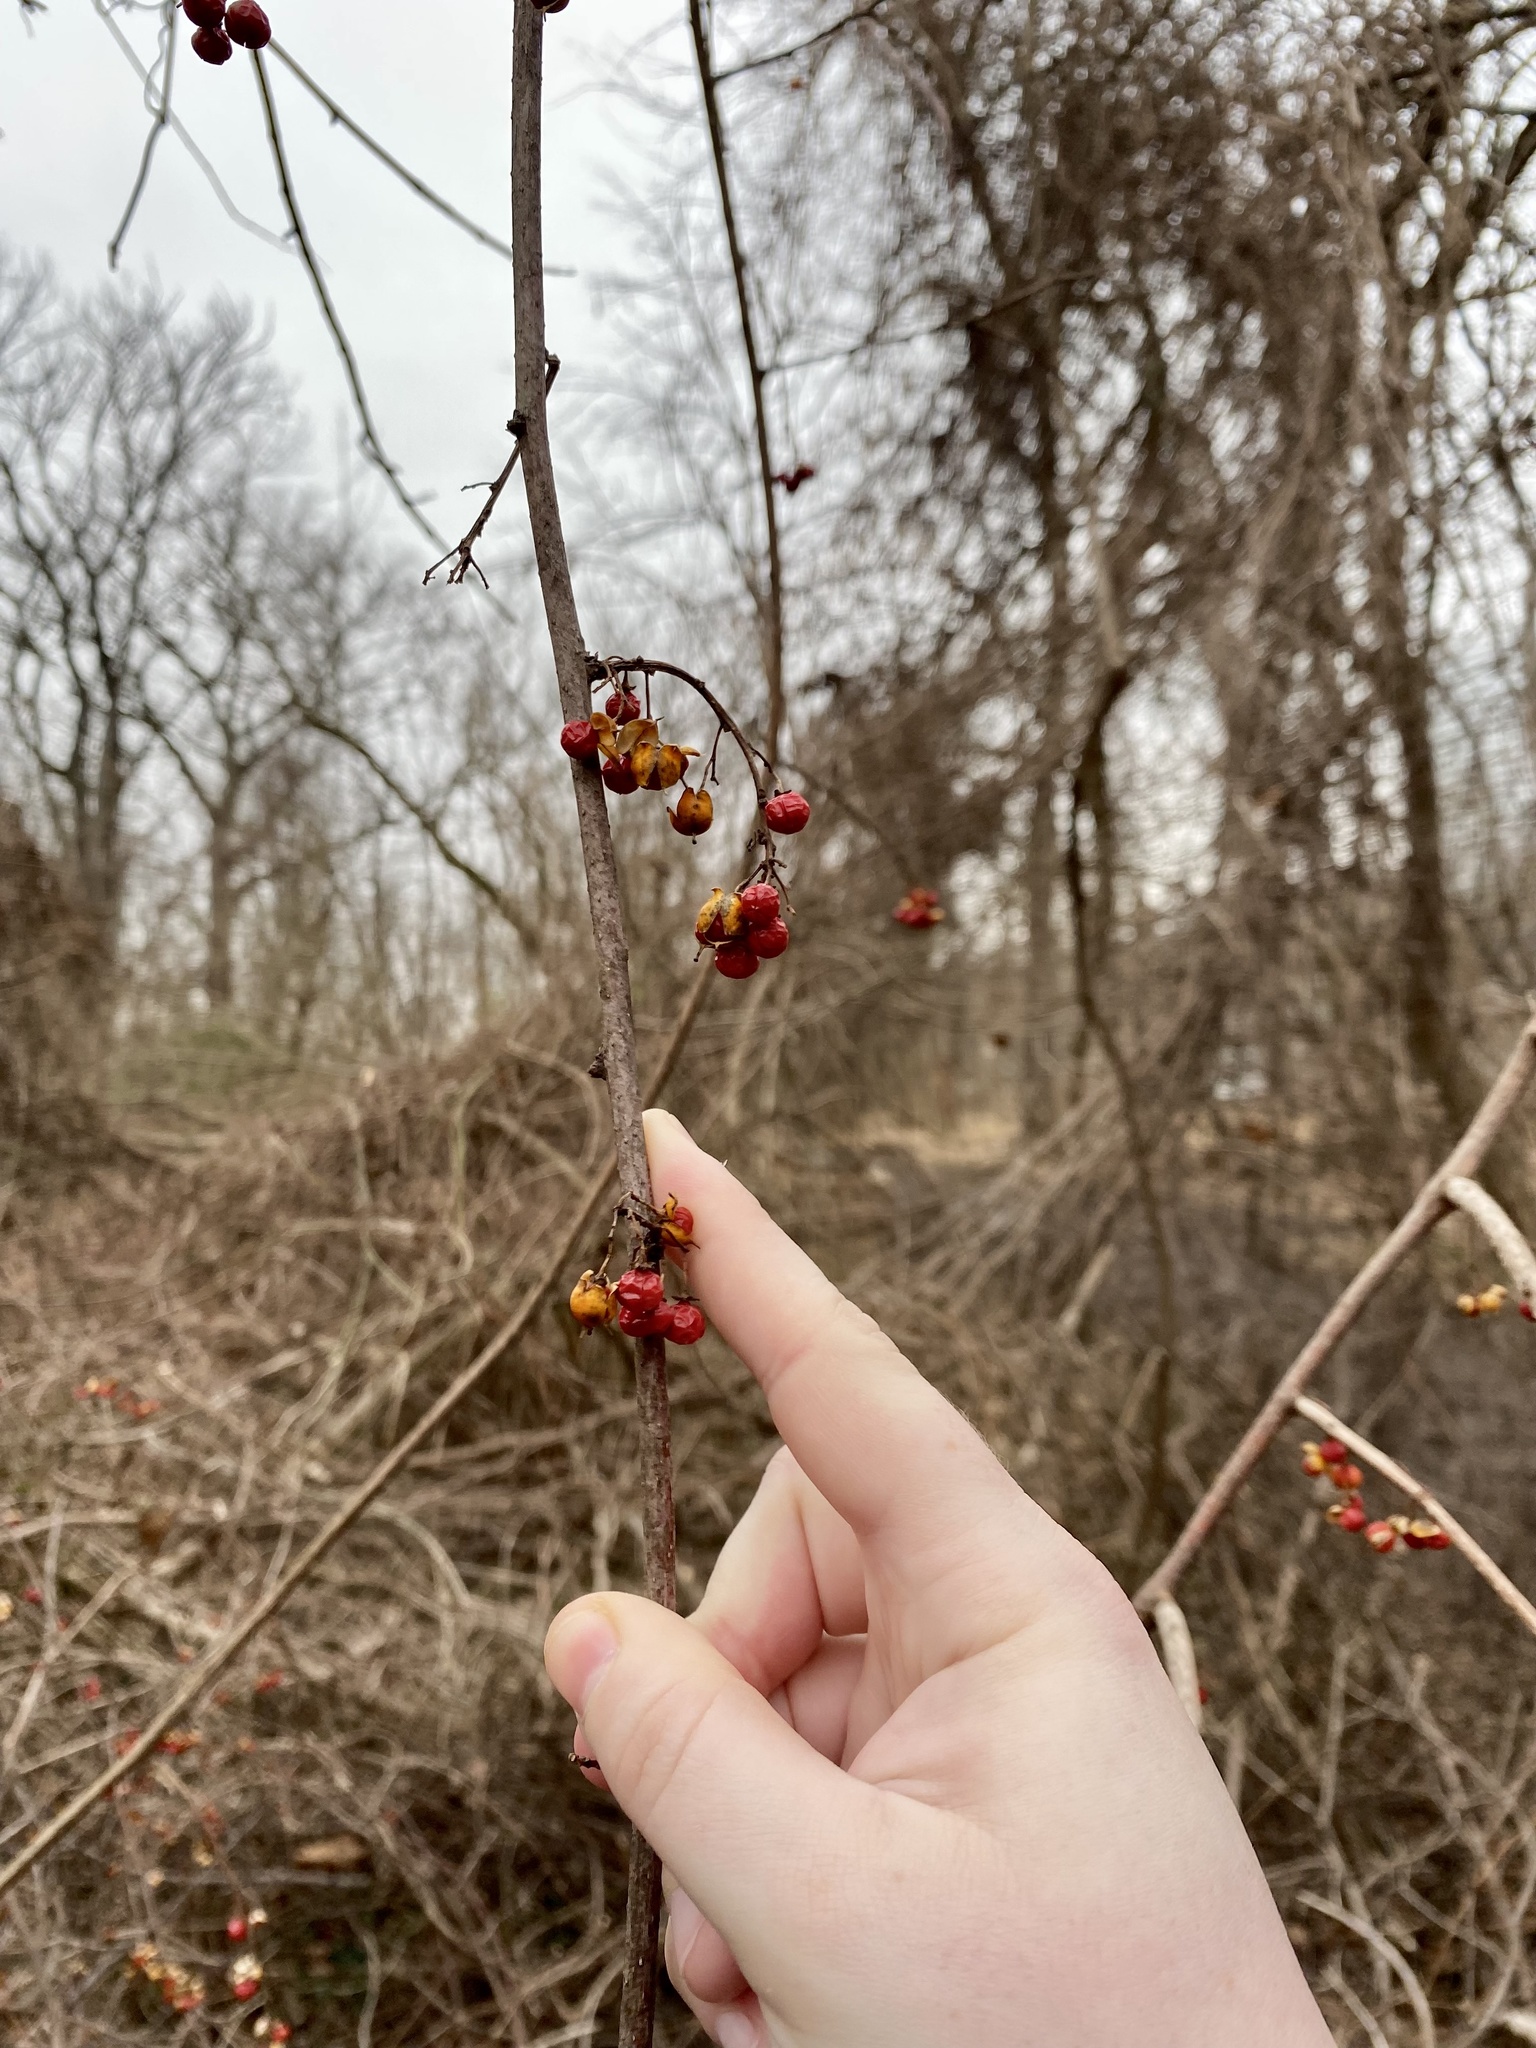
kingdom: Plantae
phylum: Tracheophyta
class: Magnoliopsida
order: Celastrales
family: Celastraceae
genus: Celastrus
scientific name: Celastrus orbiculatus
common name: Oriental bittersweet
